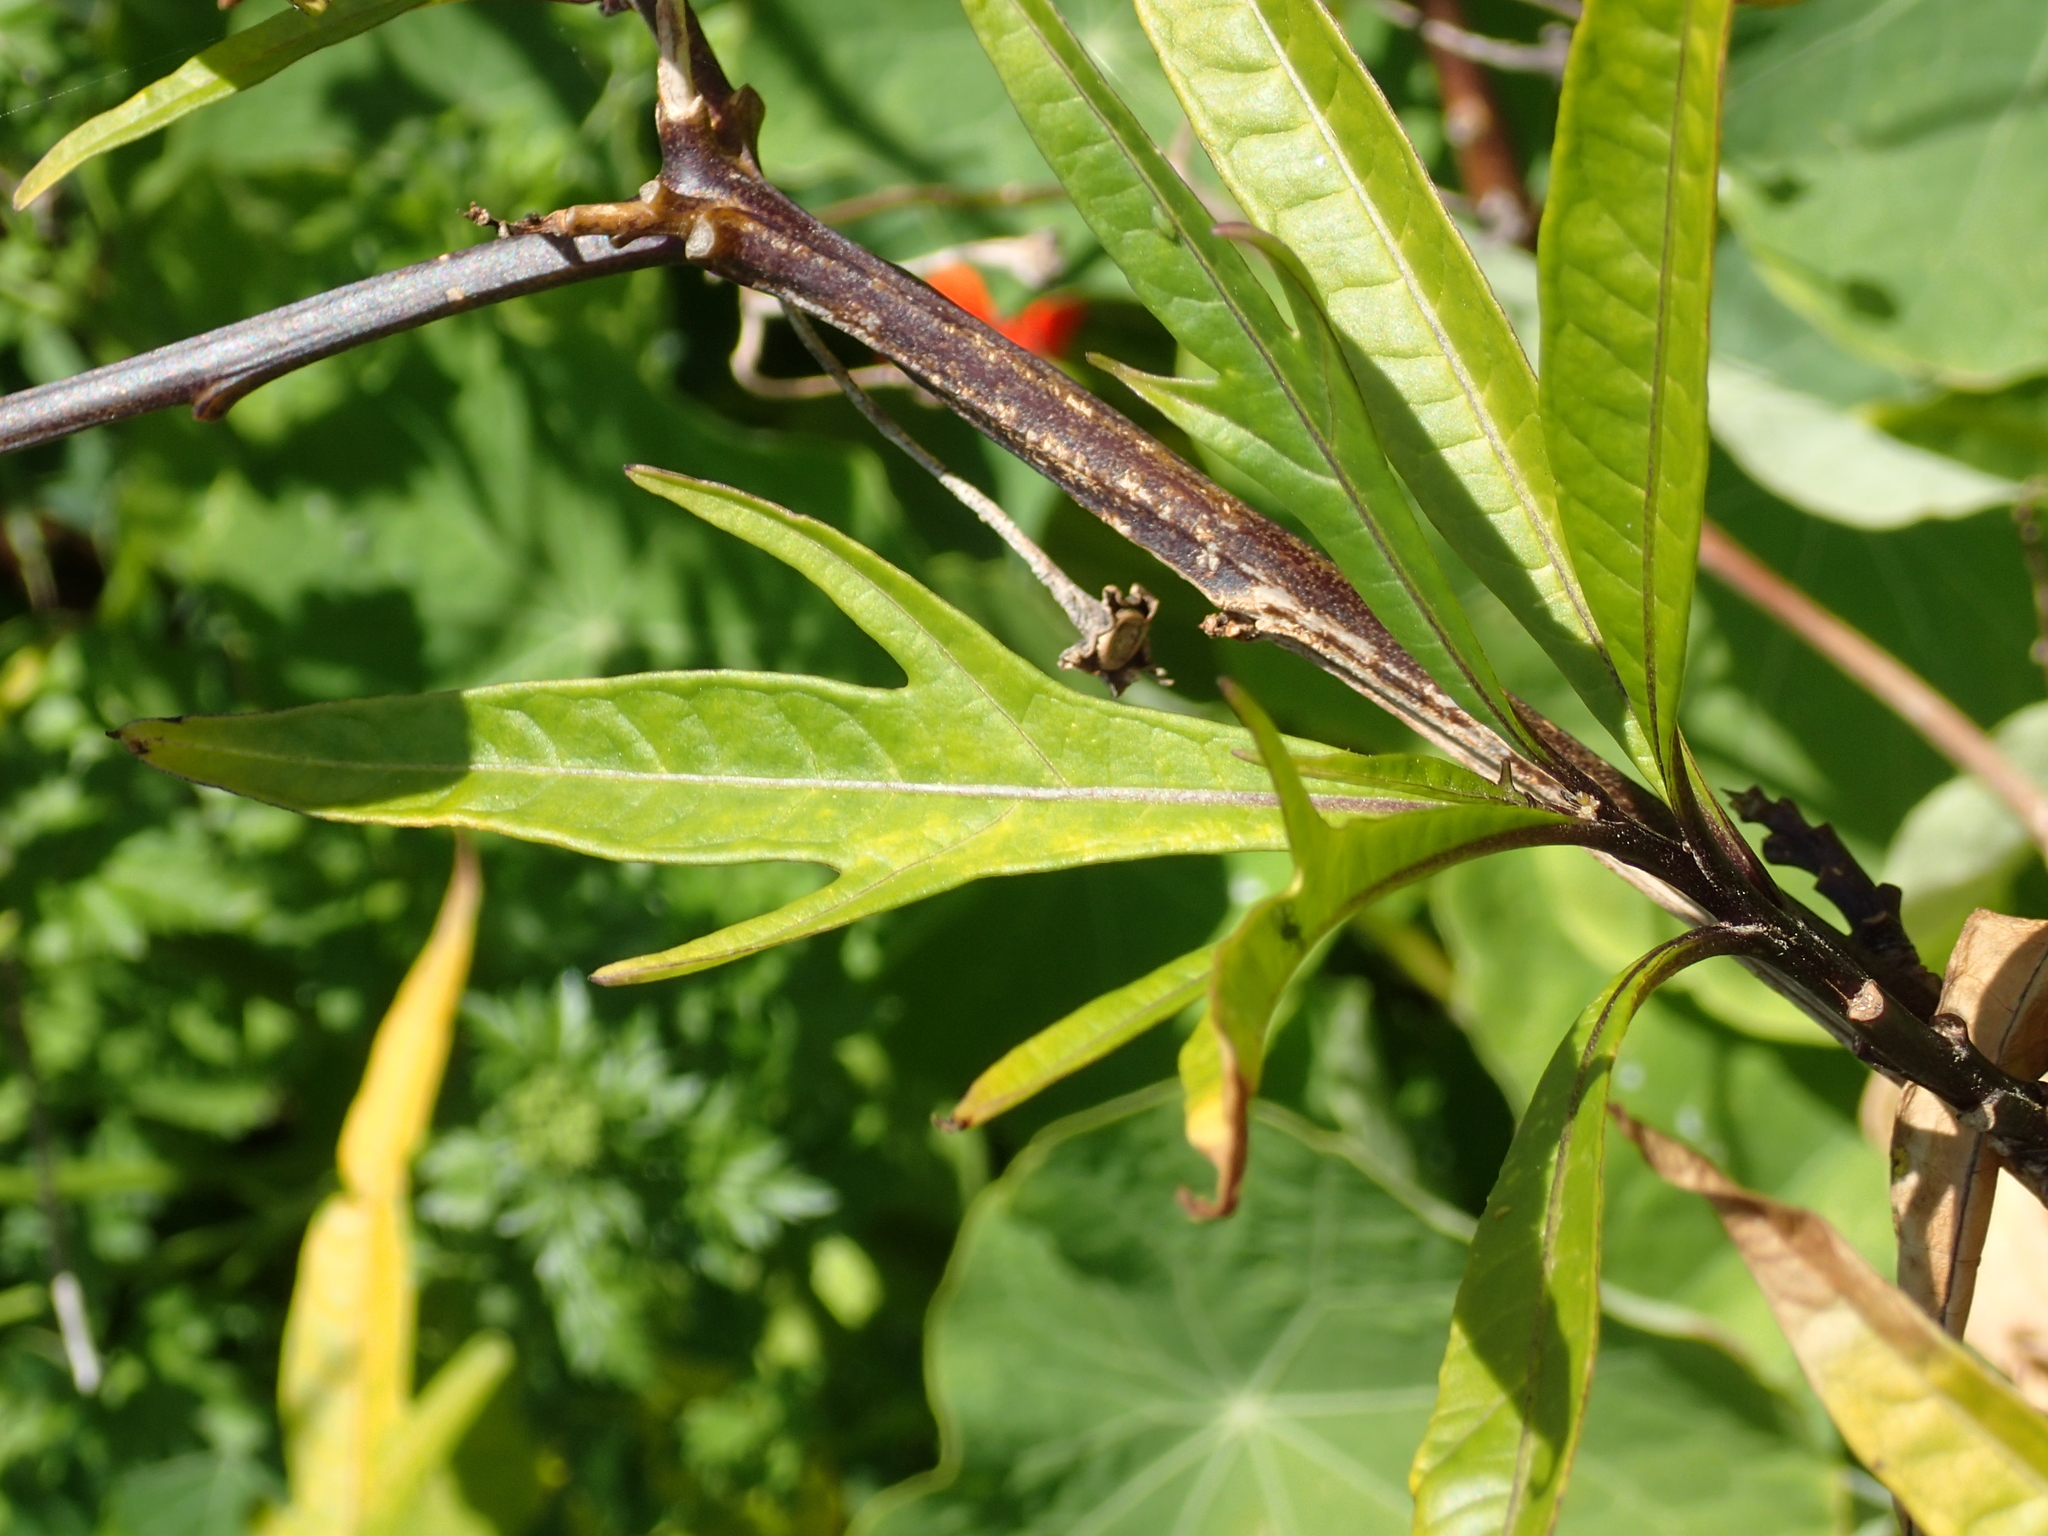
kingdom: Plantae
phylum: Tracheophyta
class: Magnoliopsida
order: Solanales
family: Solanaceae
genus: Solanum
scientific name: Solanum laciniatum
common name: Kangaroo-apple
